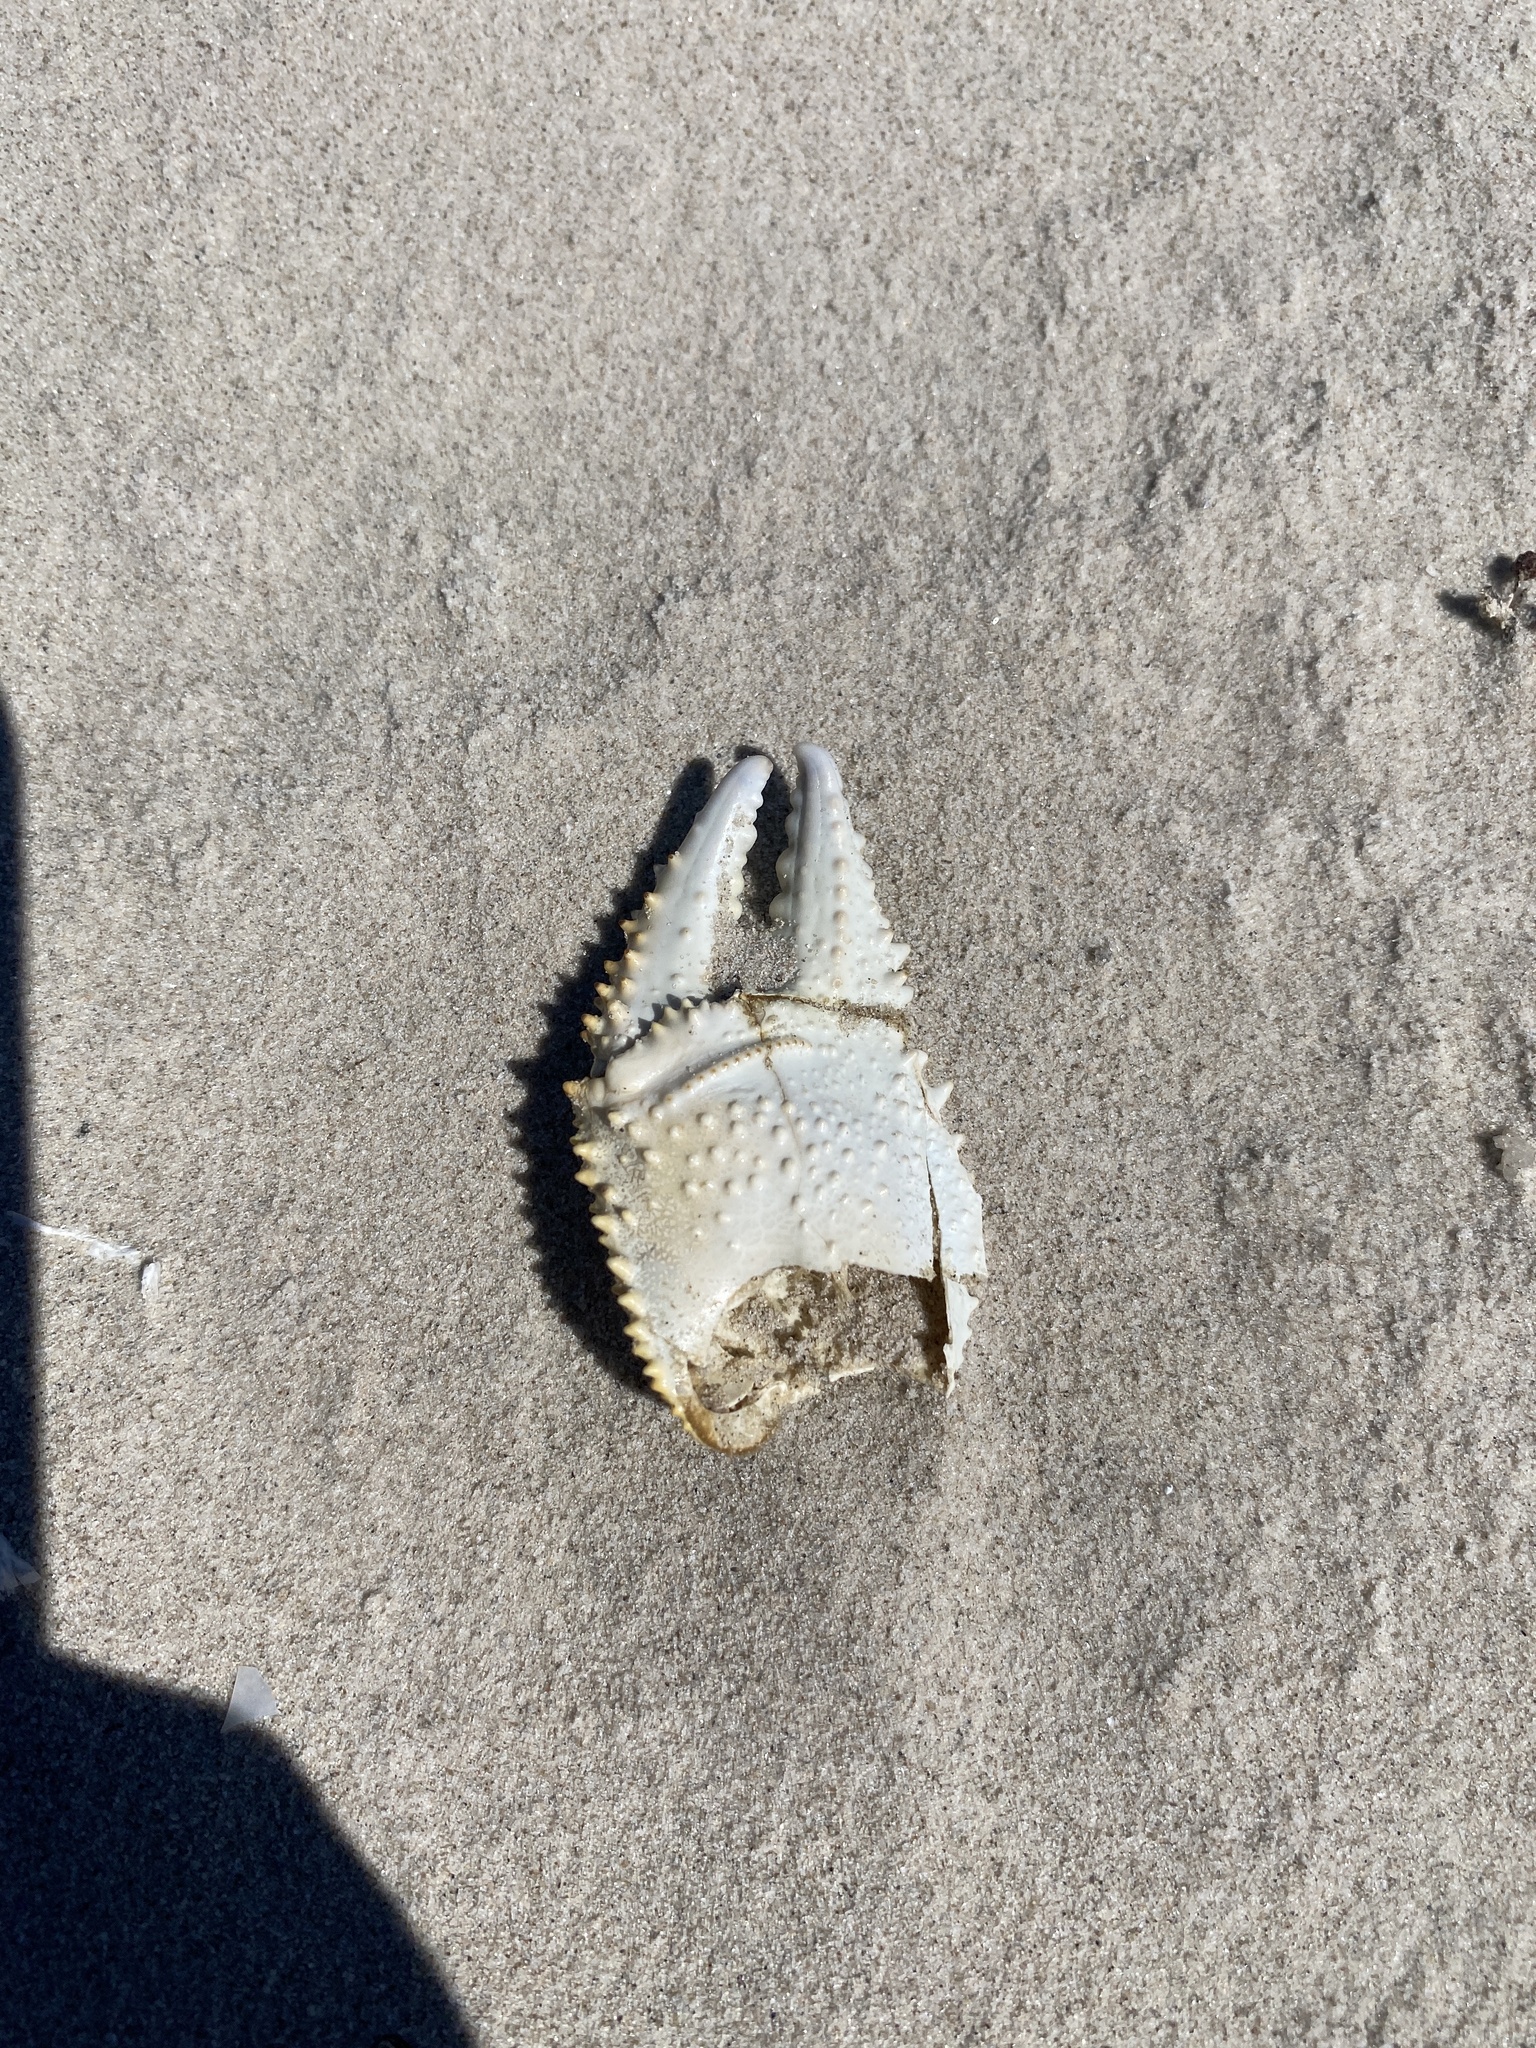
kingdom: Animalia
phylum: Arthropoda
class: Malacostraca
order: Decapoda
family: Ocypodidae
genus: Ocypode
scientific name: Ocypode quadrata
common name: Ghost crab
